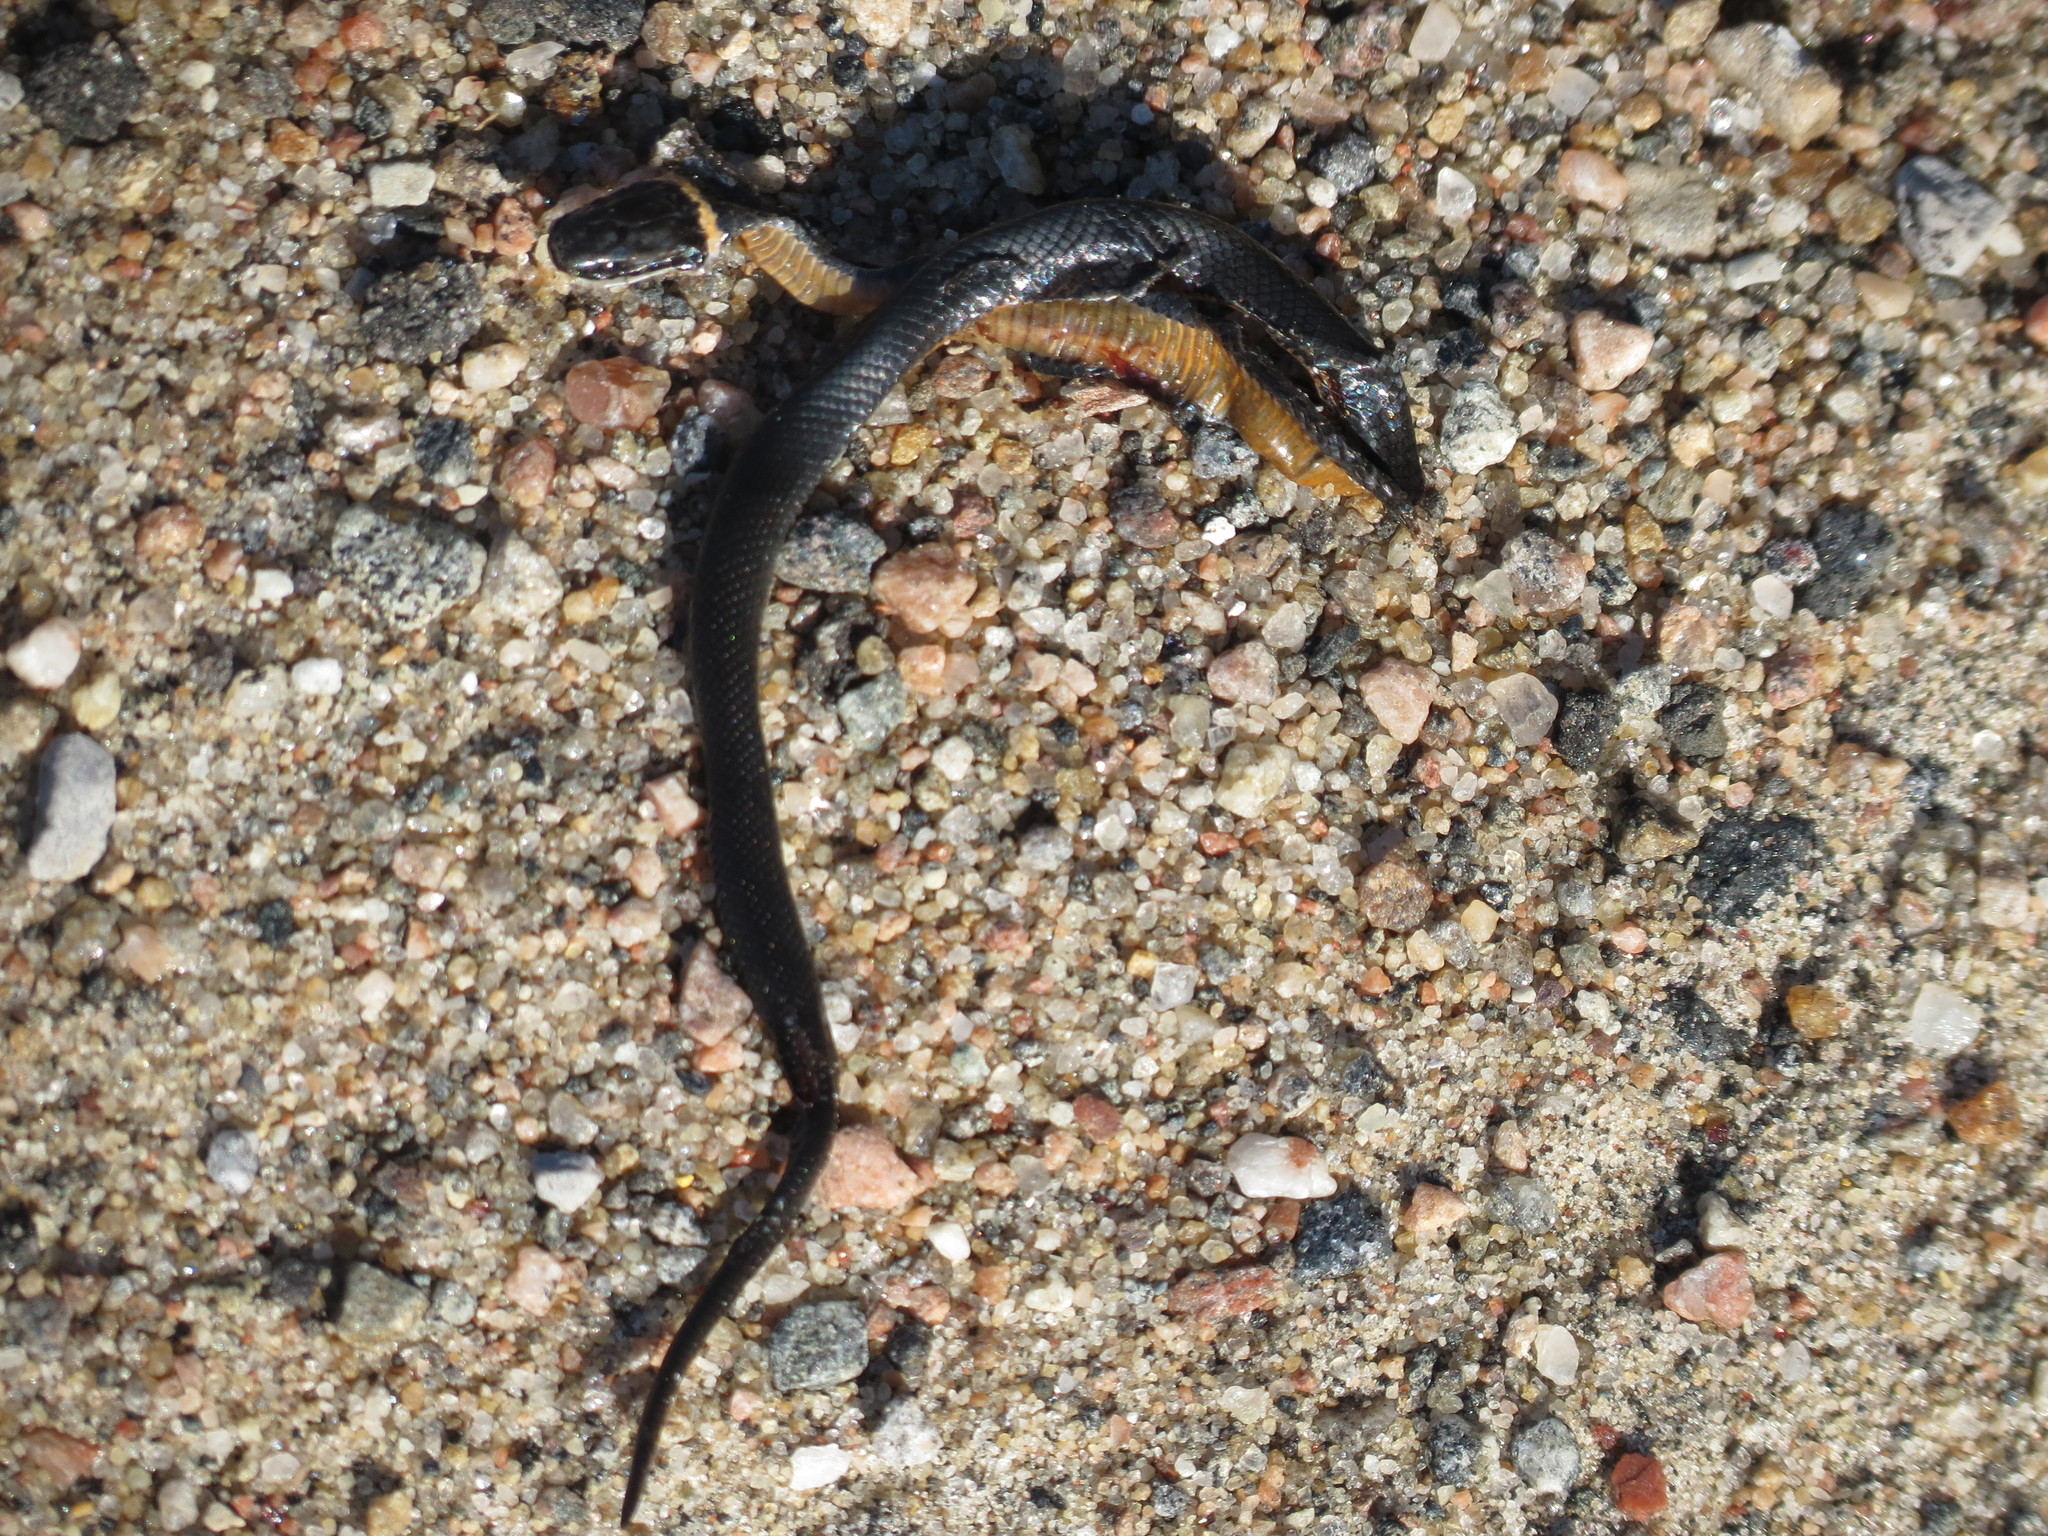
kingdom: Animalia
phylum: Chordata
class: Squamata
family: Colubridae
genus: Diadophis
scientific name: Diadophis punctatus
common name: Ringneck snake
